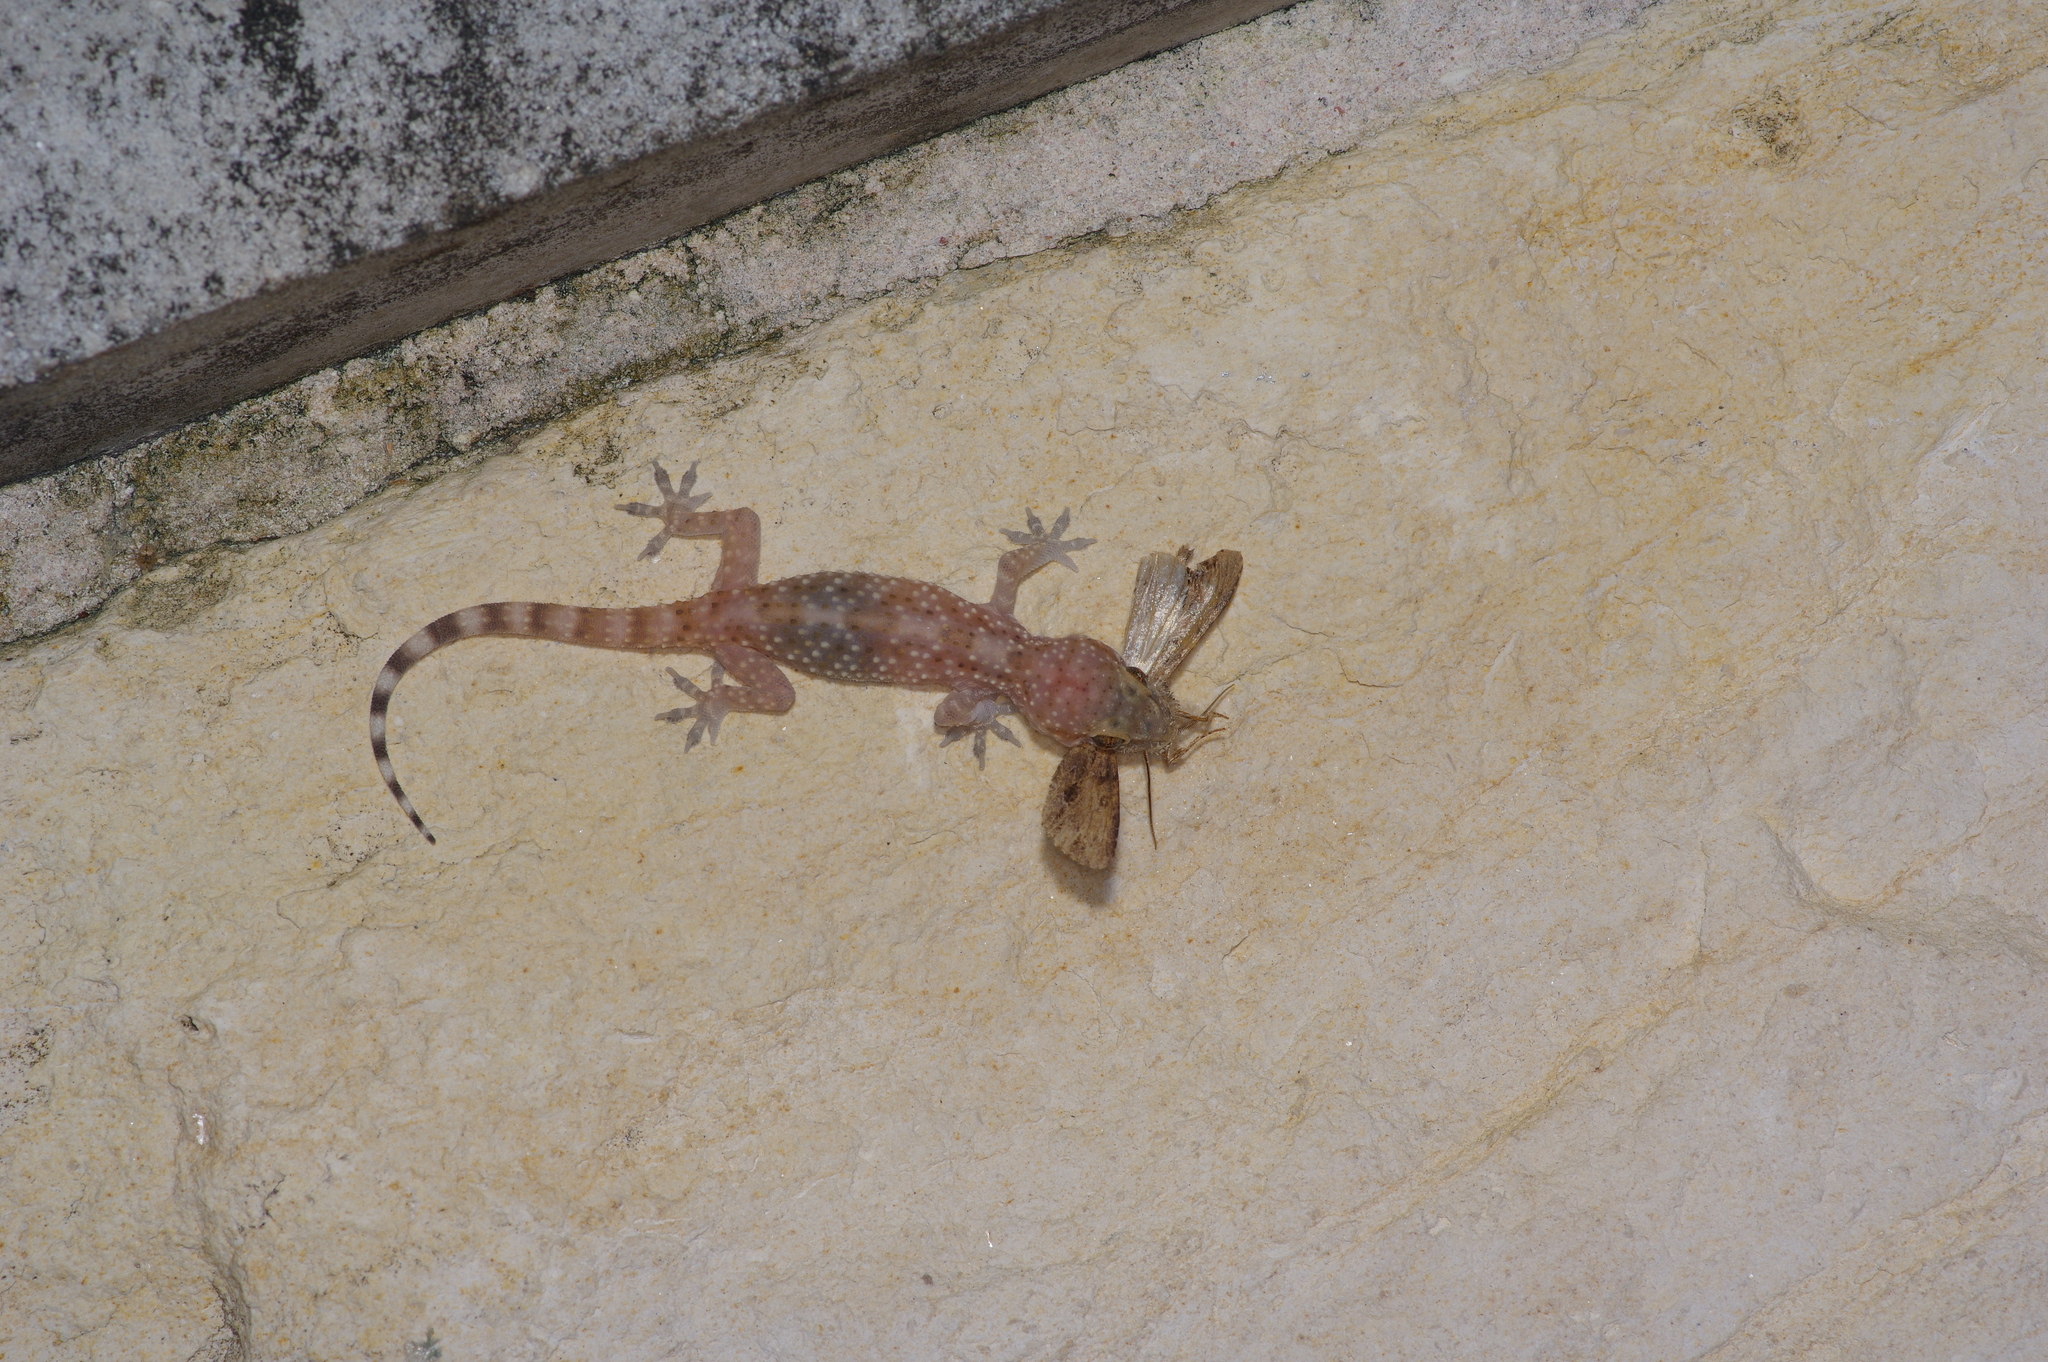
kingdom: Animalia
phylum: Chordata
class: Squamata
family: Gekkonidae
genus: Hemidactylus
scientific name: Hemidactylus turcicus
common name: Turkish gecko
